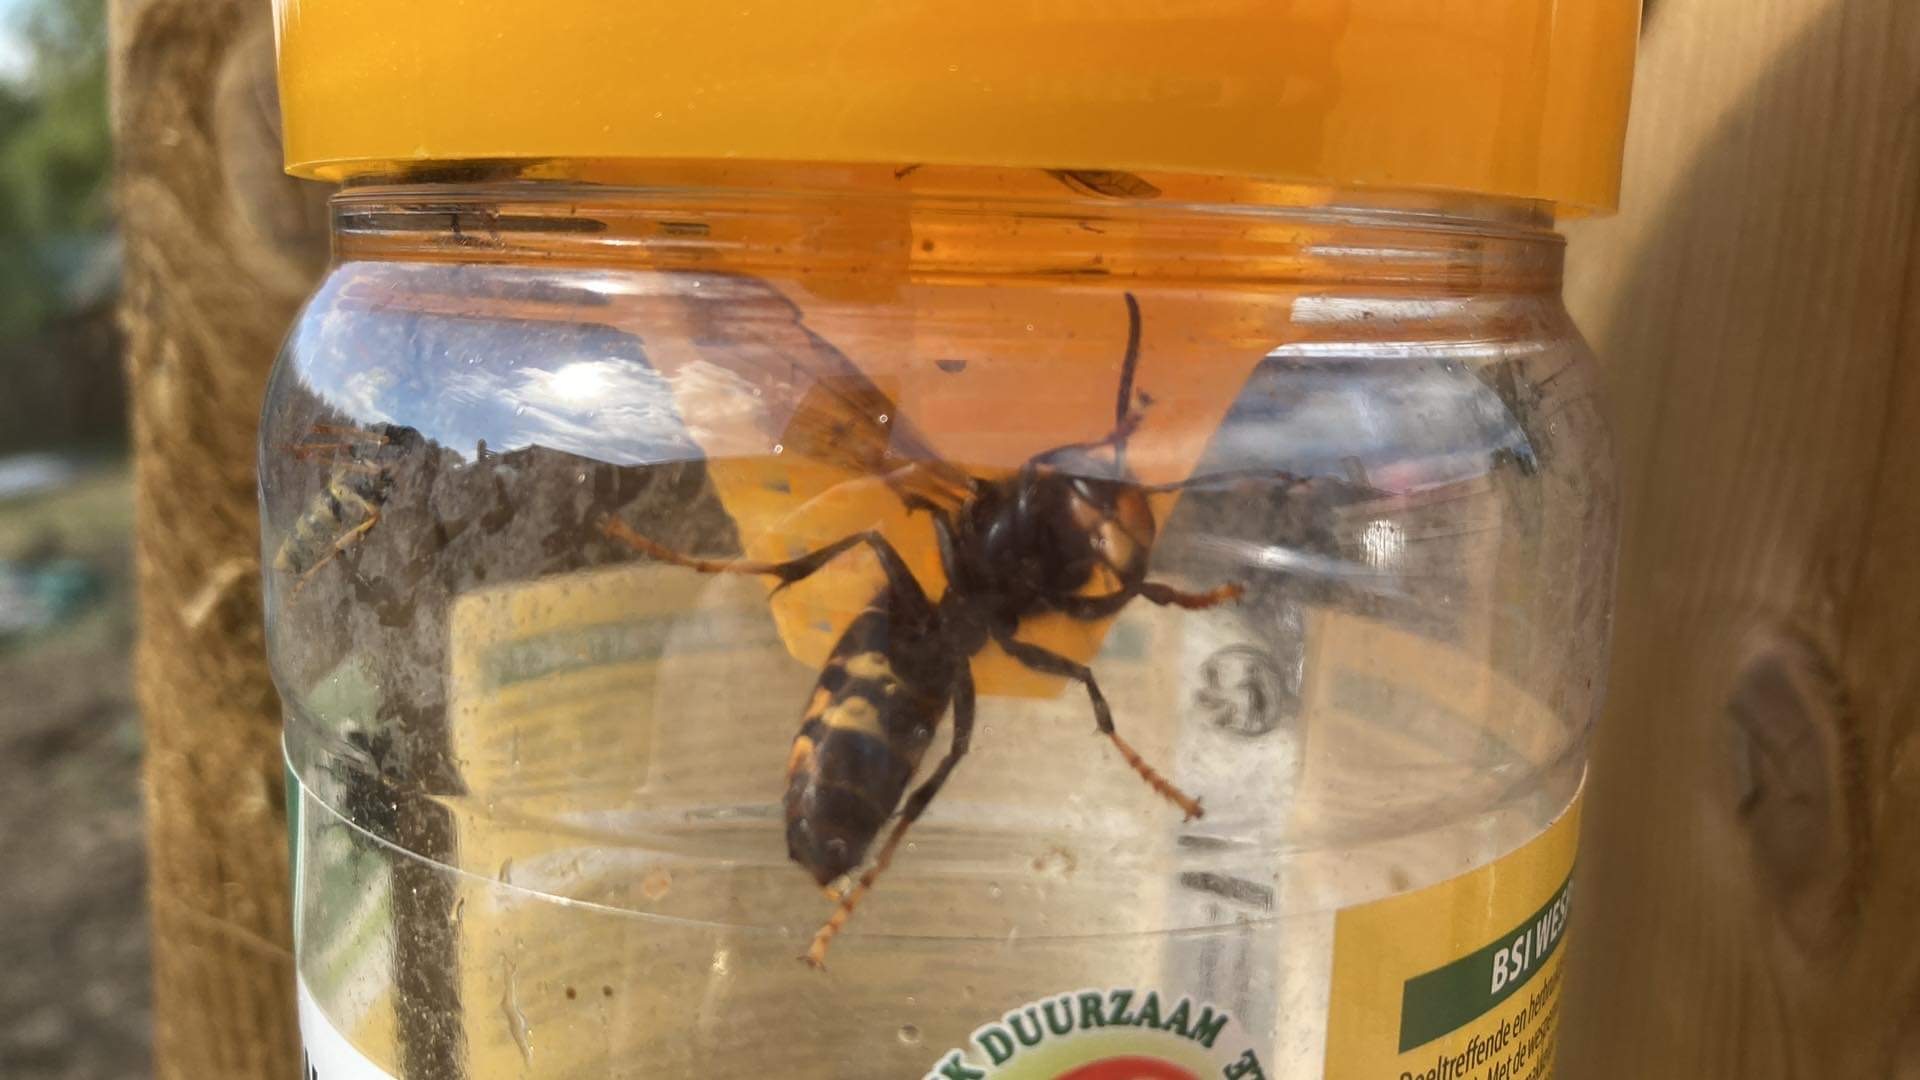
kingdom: Animalia
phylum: Arthropoda
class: Insecta
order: Hymenoptera
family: Vespidae
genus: Vespa
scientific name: Vespa velutina
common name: Asian hornet
